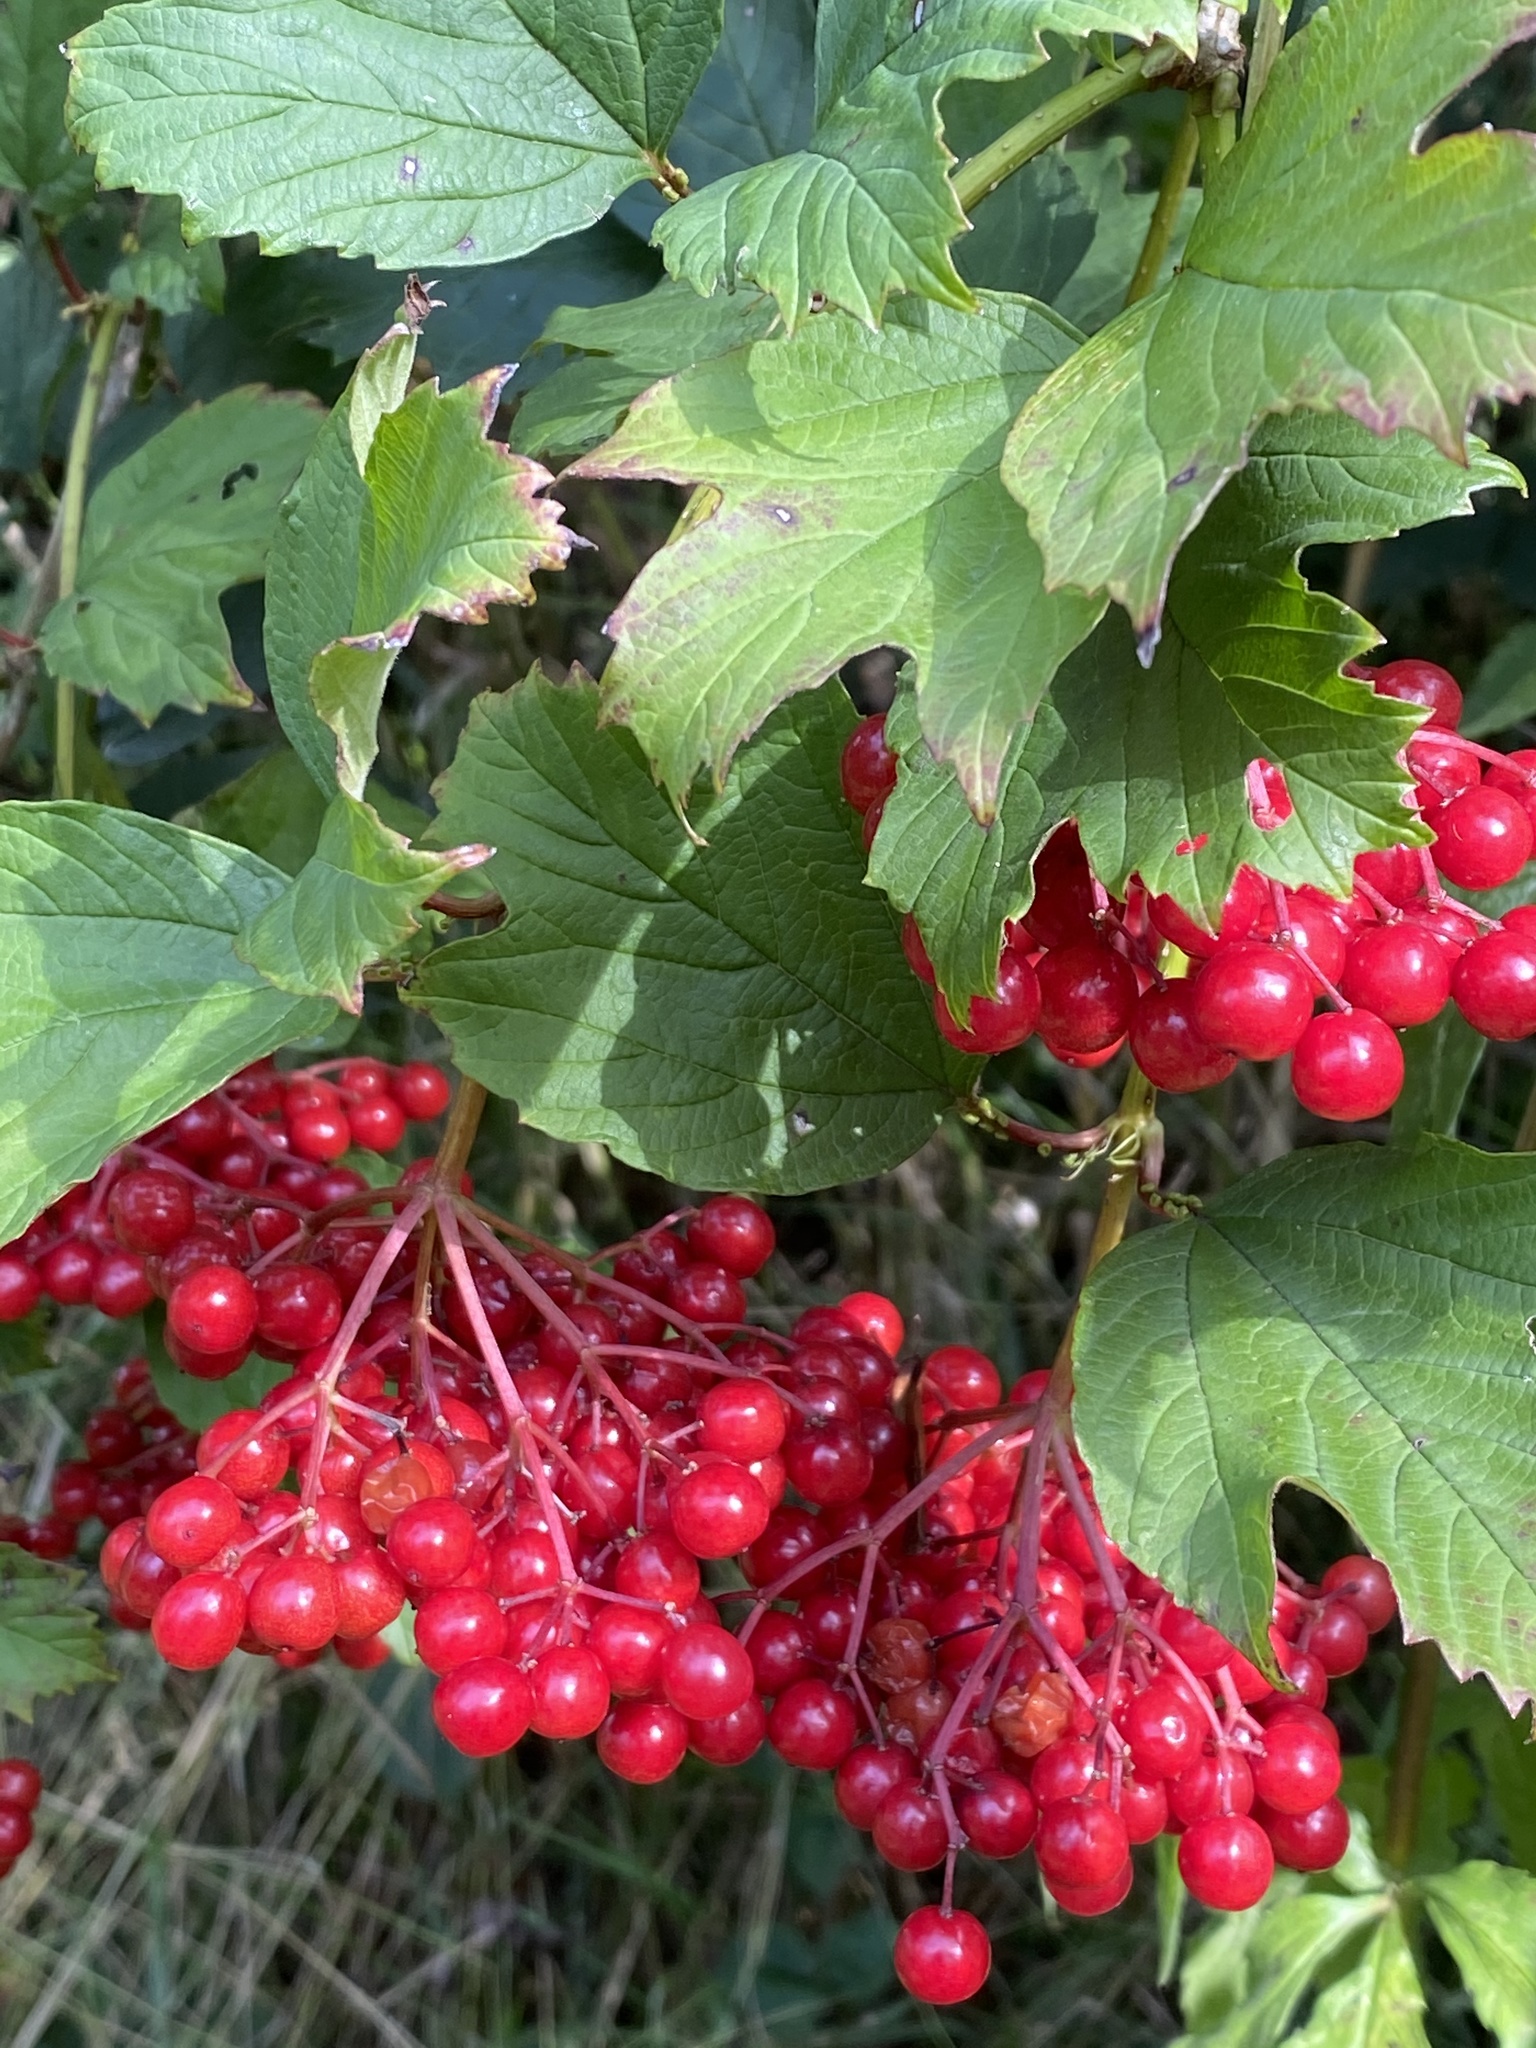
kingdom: Plantae
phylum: Tracheophyta
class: Magnoliopsida
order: Dipsacales
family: Viburnaceae
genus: Viburnum
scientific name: Viburnum opulus
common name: Guelder-rose
